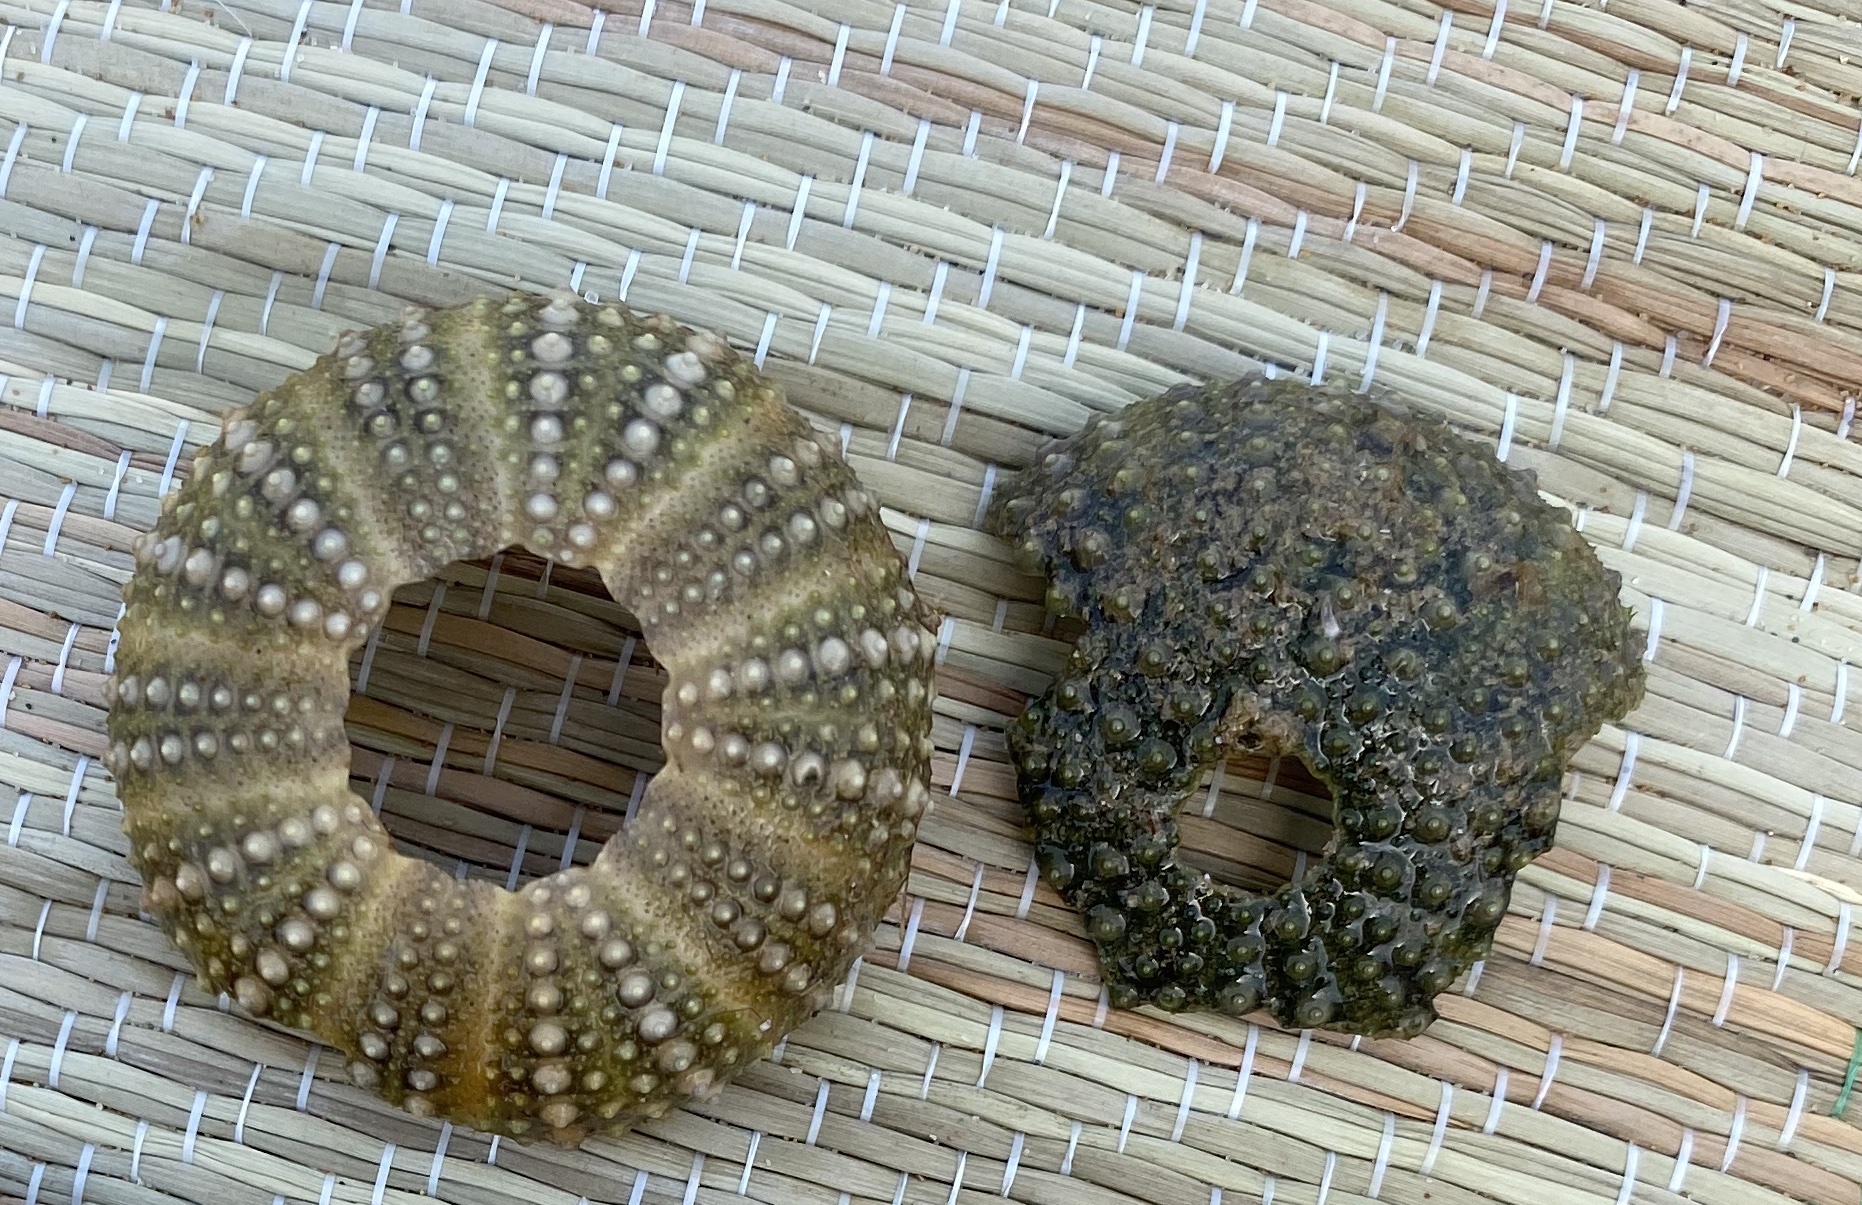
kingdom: Animalia
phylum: Echinodermata
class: Echinoidea
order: Camarodonta
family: Parechinidae
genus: Paracentrotus
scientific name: Paracentrotus lividus
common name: Purple sea urchin
